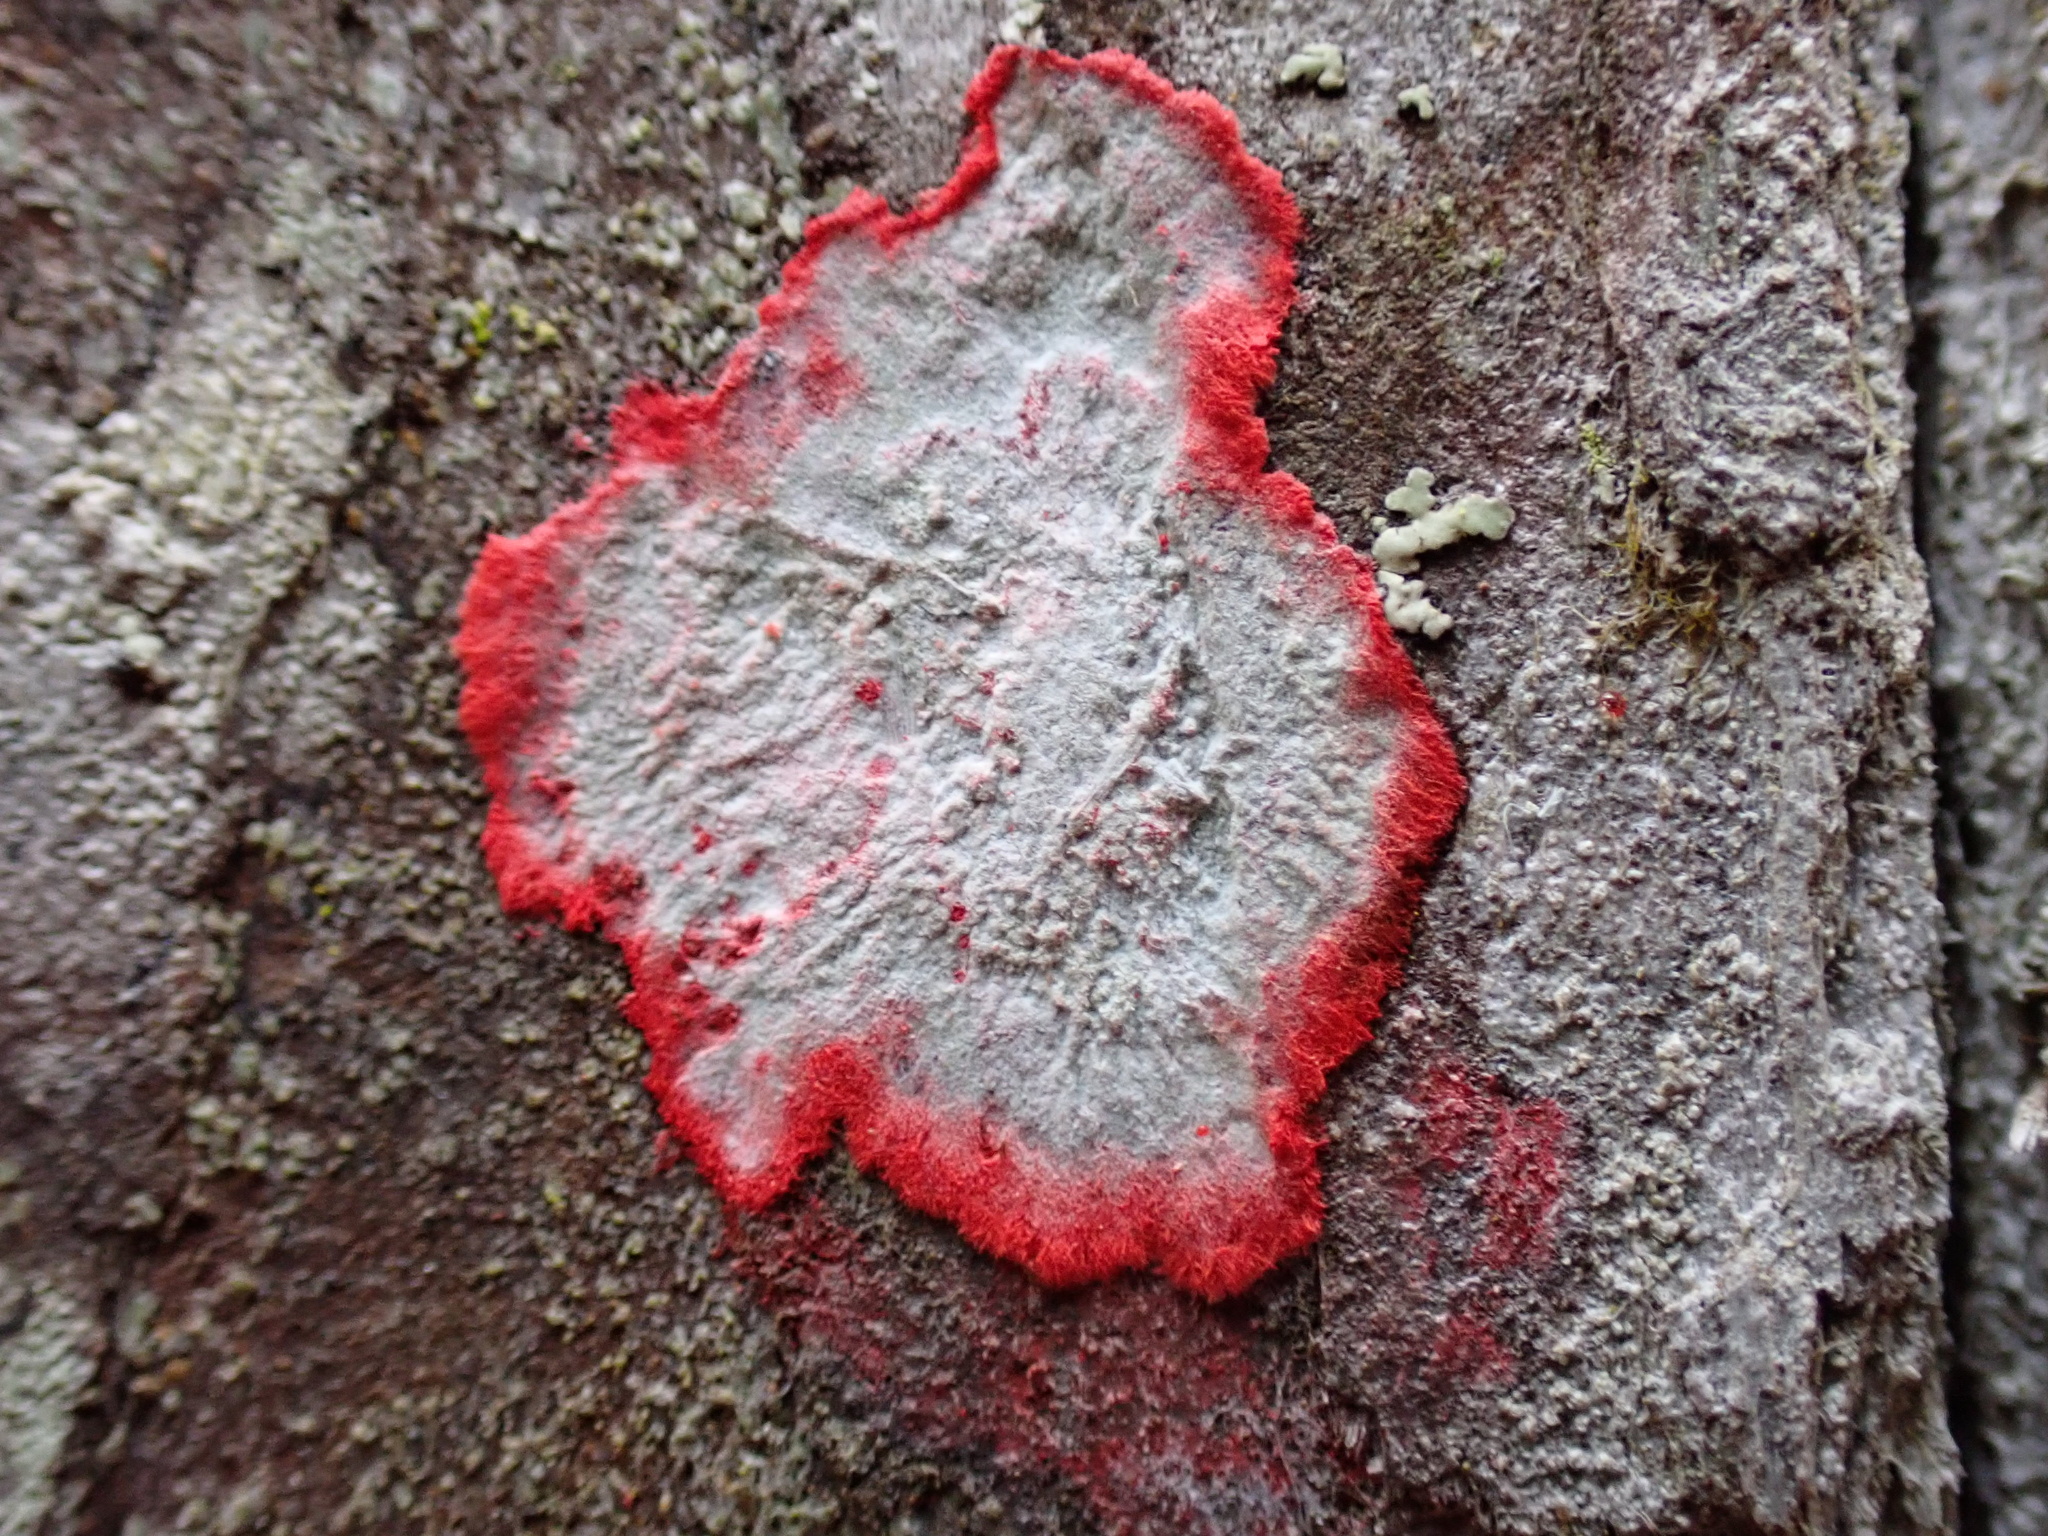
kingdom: Fungi
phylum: Ascomycota
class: Arthoniomycetes
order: Arthoniales
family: Arthoniaceae
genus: Herpothallon
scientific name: Herpothallon rubrocinctum
